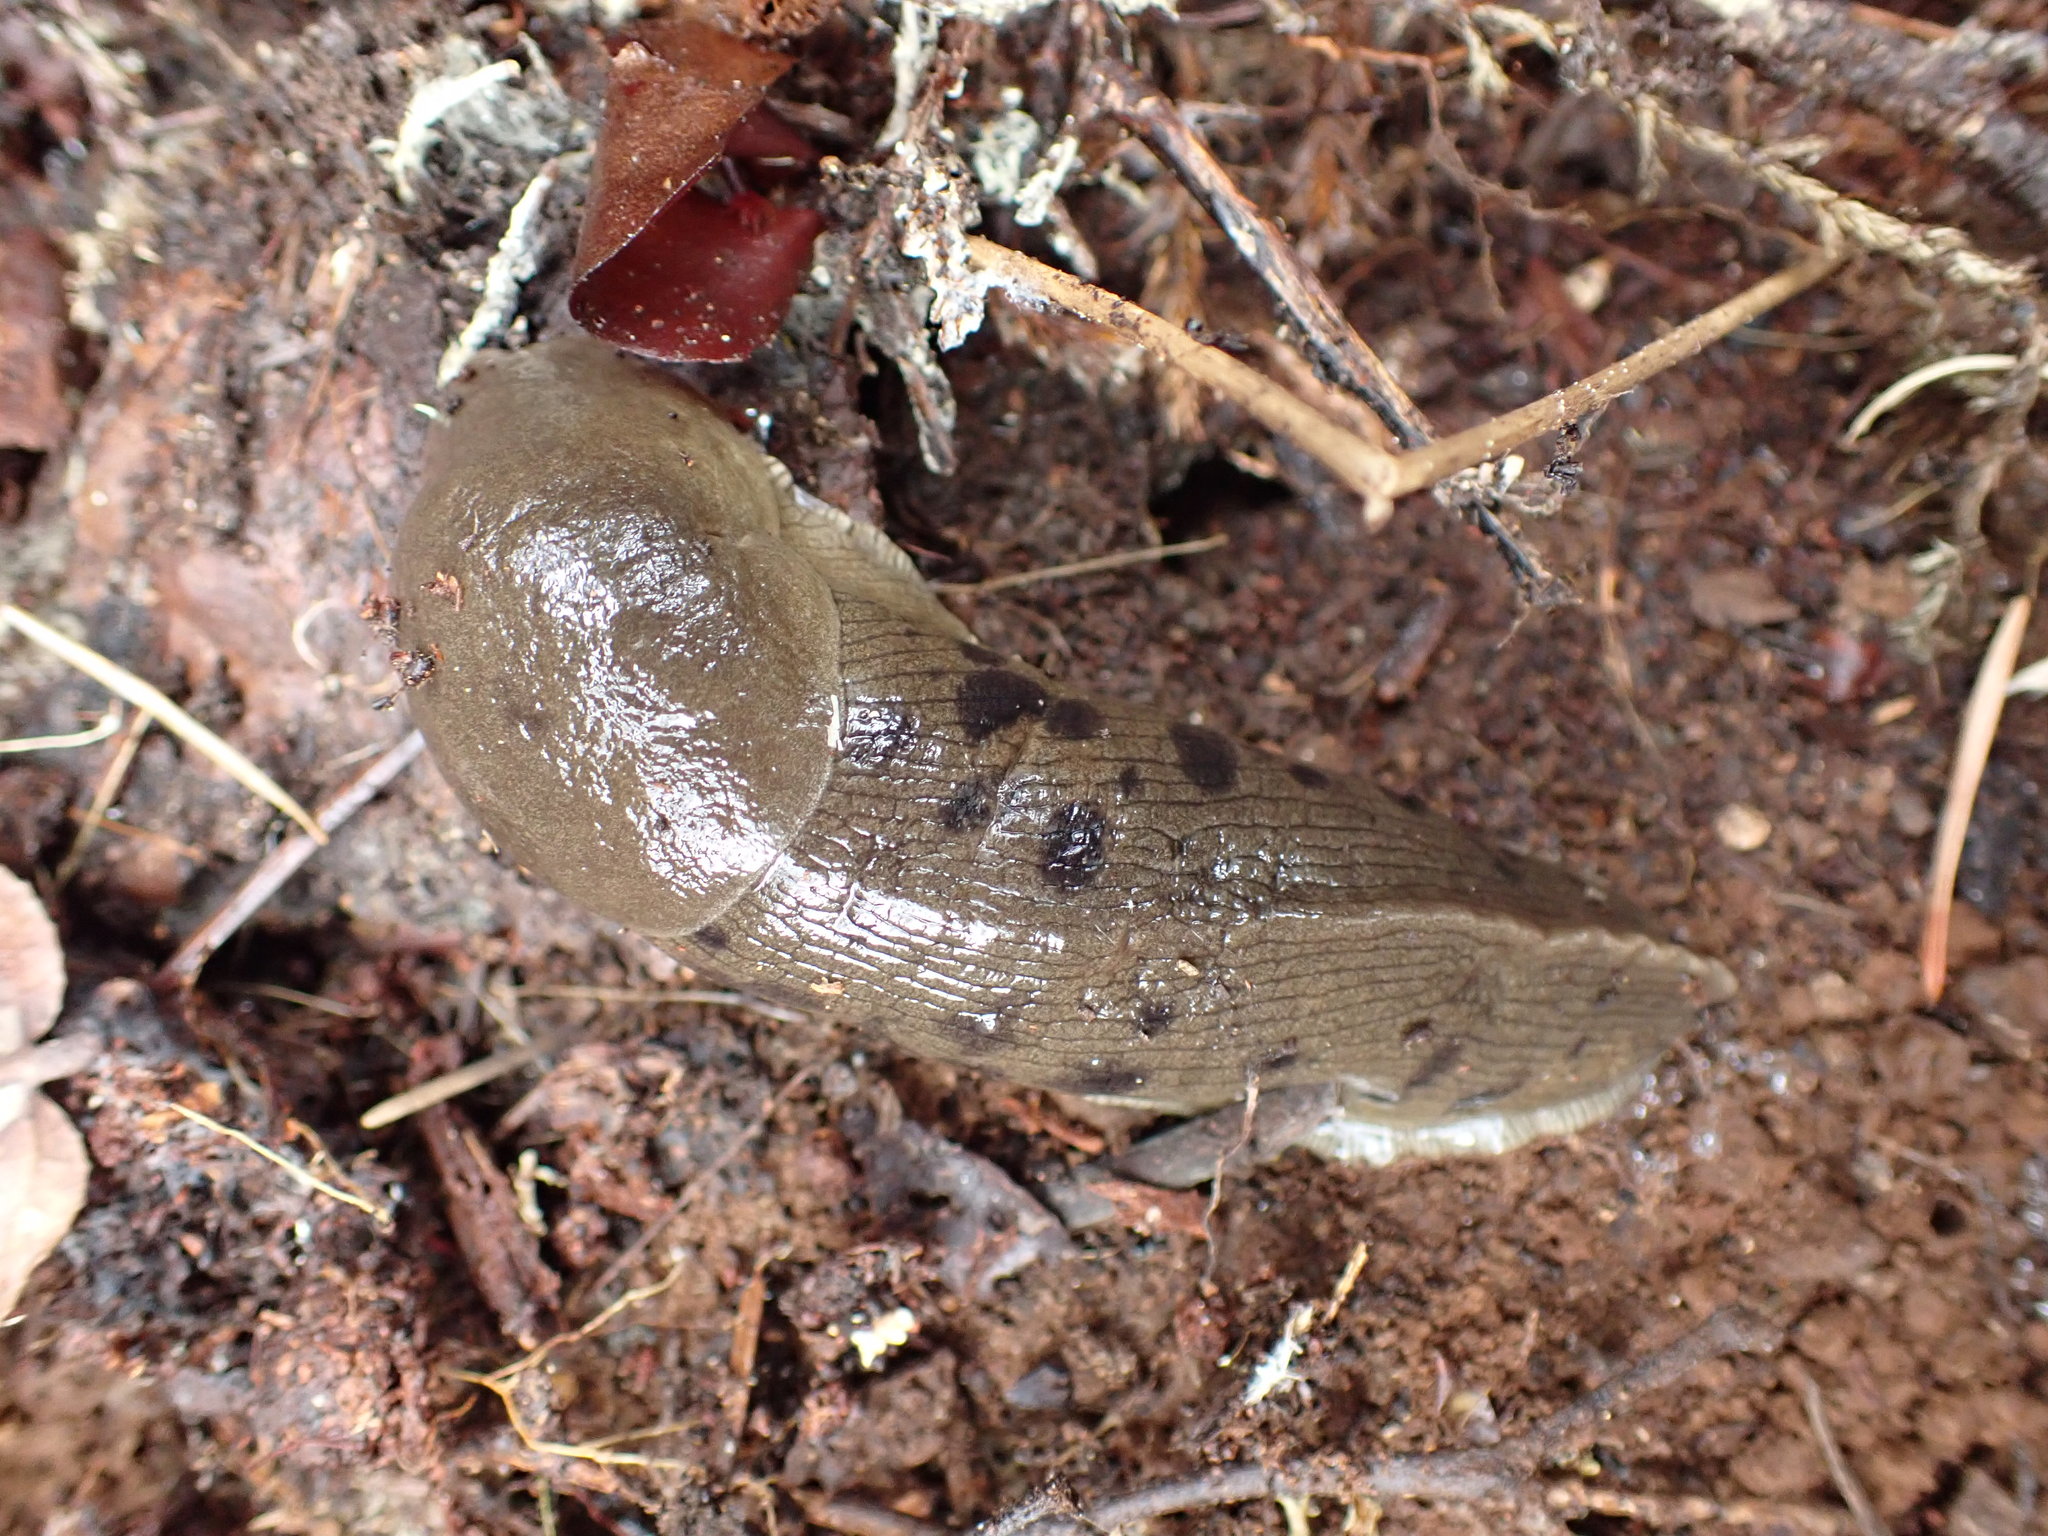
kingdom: Animalia
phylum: Mollusca
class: Gastropoda
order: Stylommatophora
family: Ariolimacidae
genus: Ariolimax
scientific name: Ariolimax columbianus
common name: Pacific banana slug
